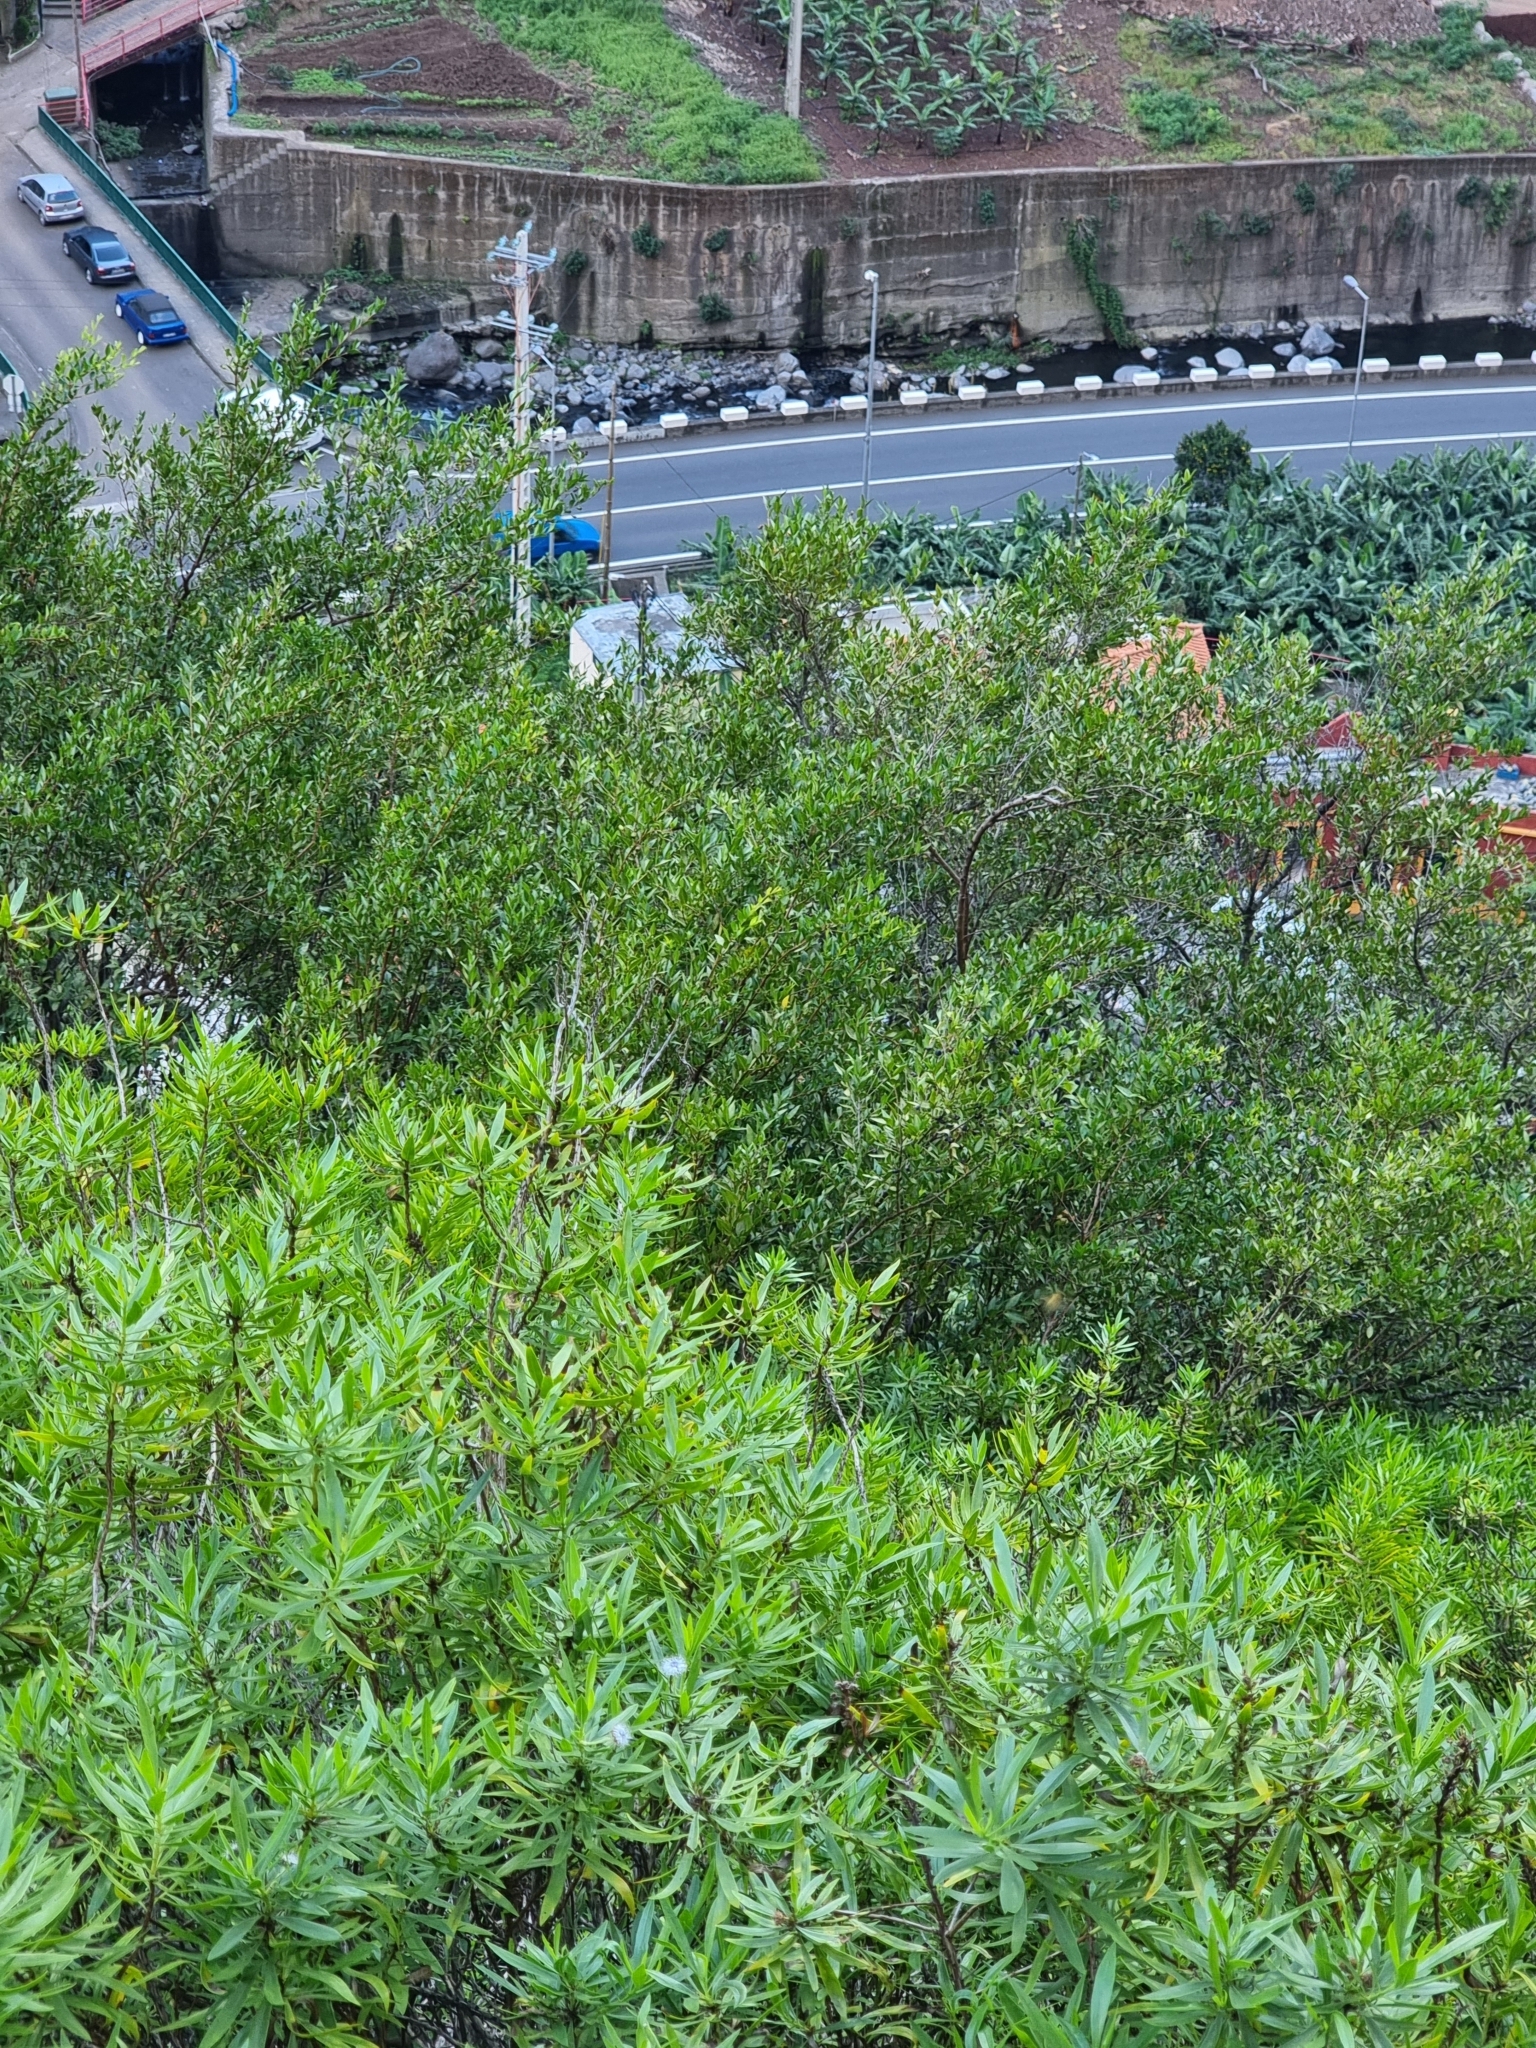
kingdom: Plantae
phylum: Tracheophyta
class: Magnoliopsida
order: Myrtales
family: Myrtaceae
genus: Myrtus
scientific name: Myrtus communis
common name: Myrtle
